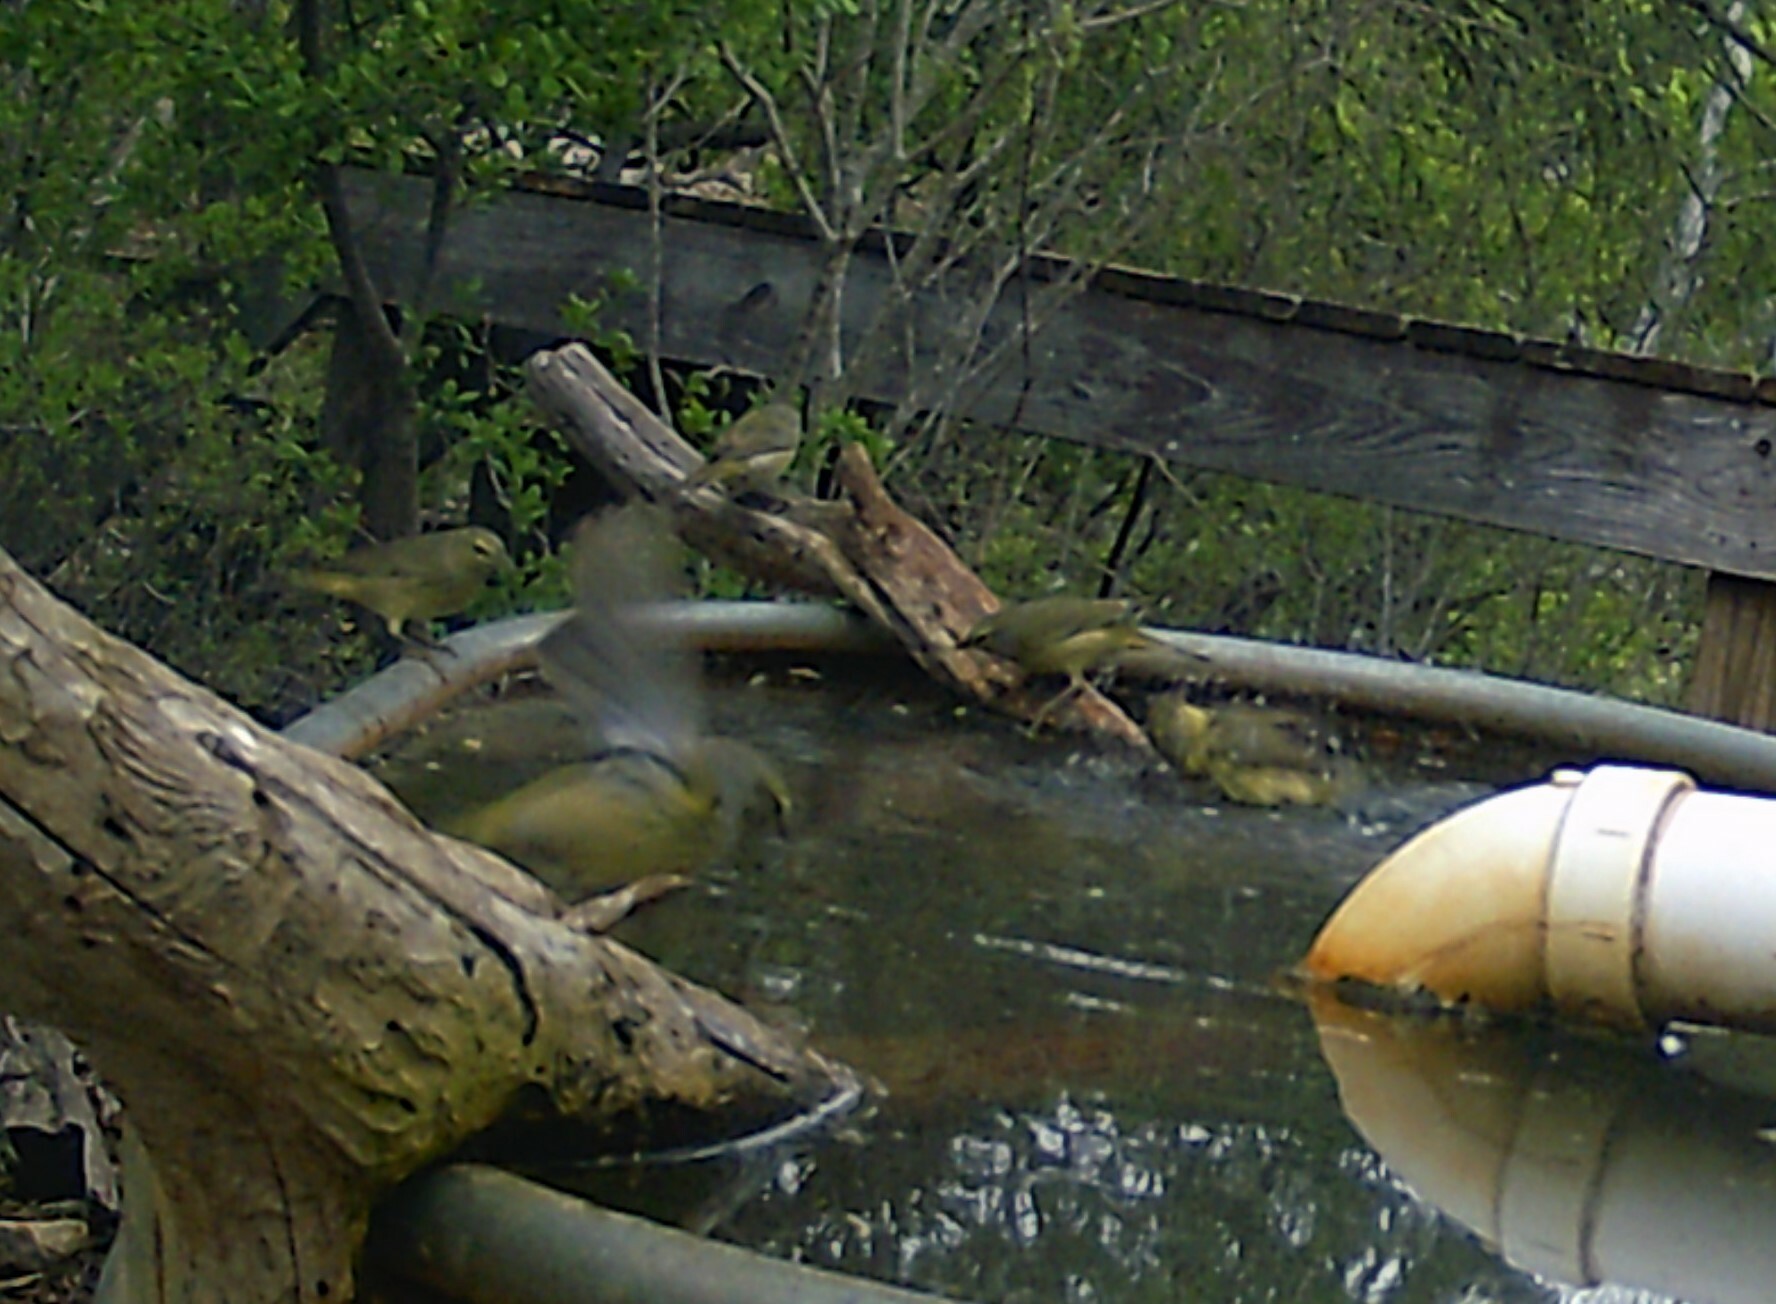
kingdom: Animalia
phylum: Chordata
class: Aves
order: Passeriformes
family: Parulidae
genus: Leiothlypis
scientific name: Leiothlypis celata
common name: Orange-crowned warbler
